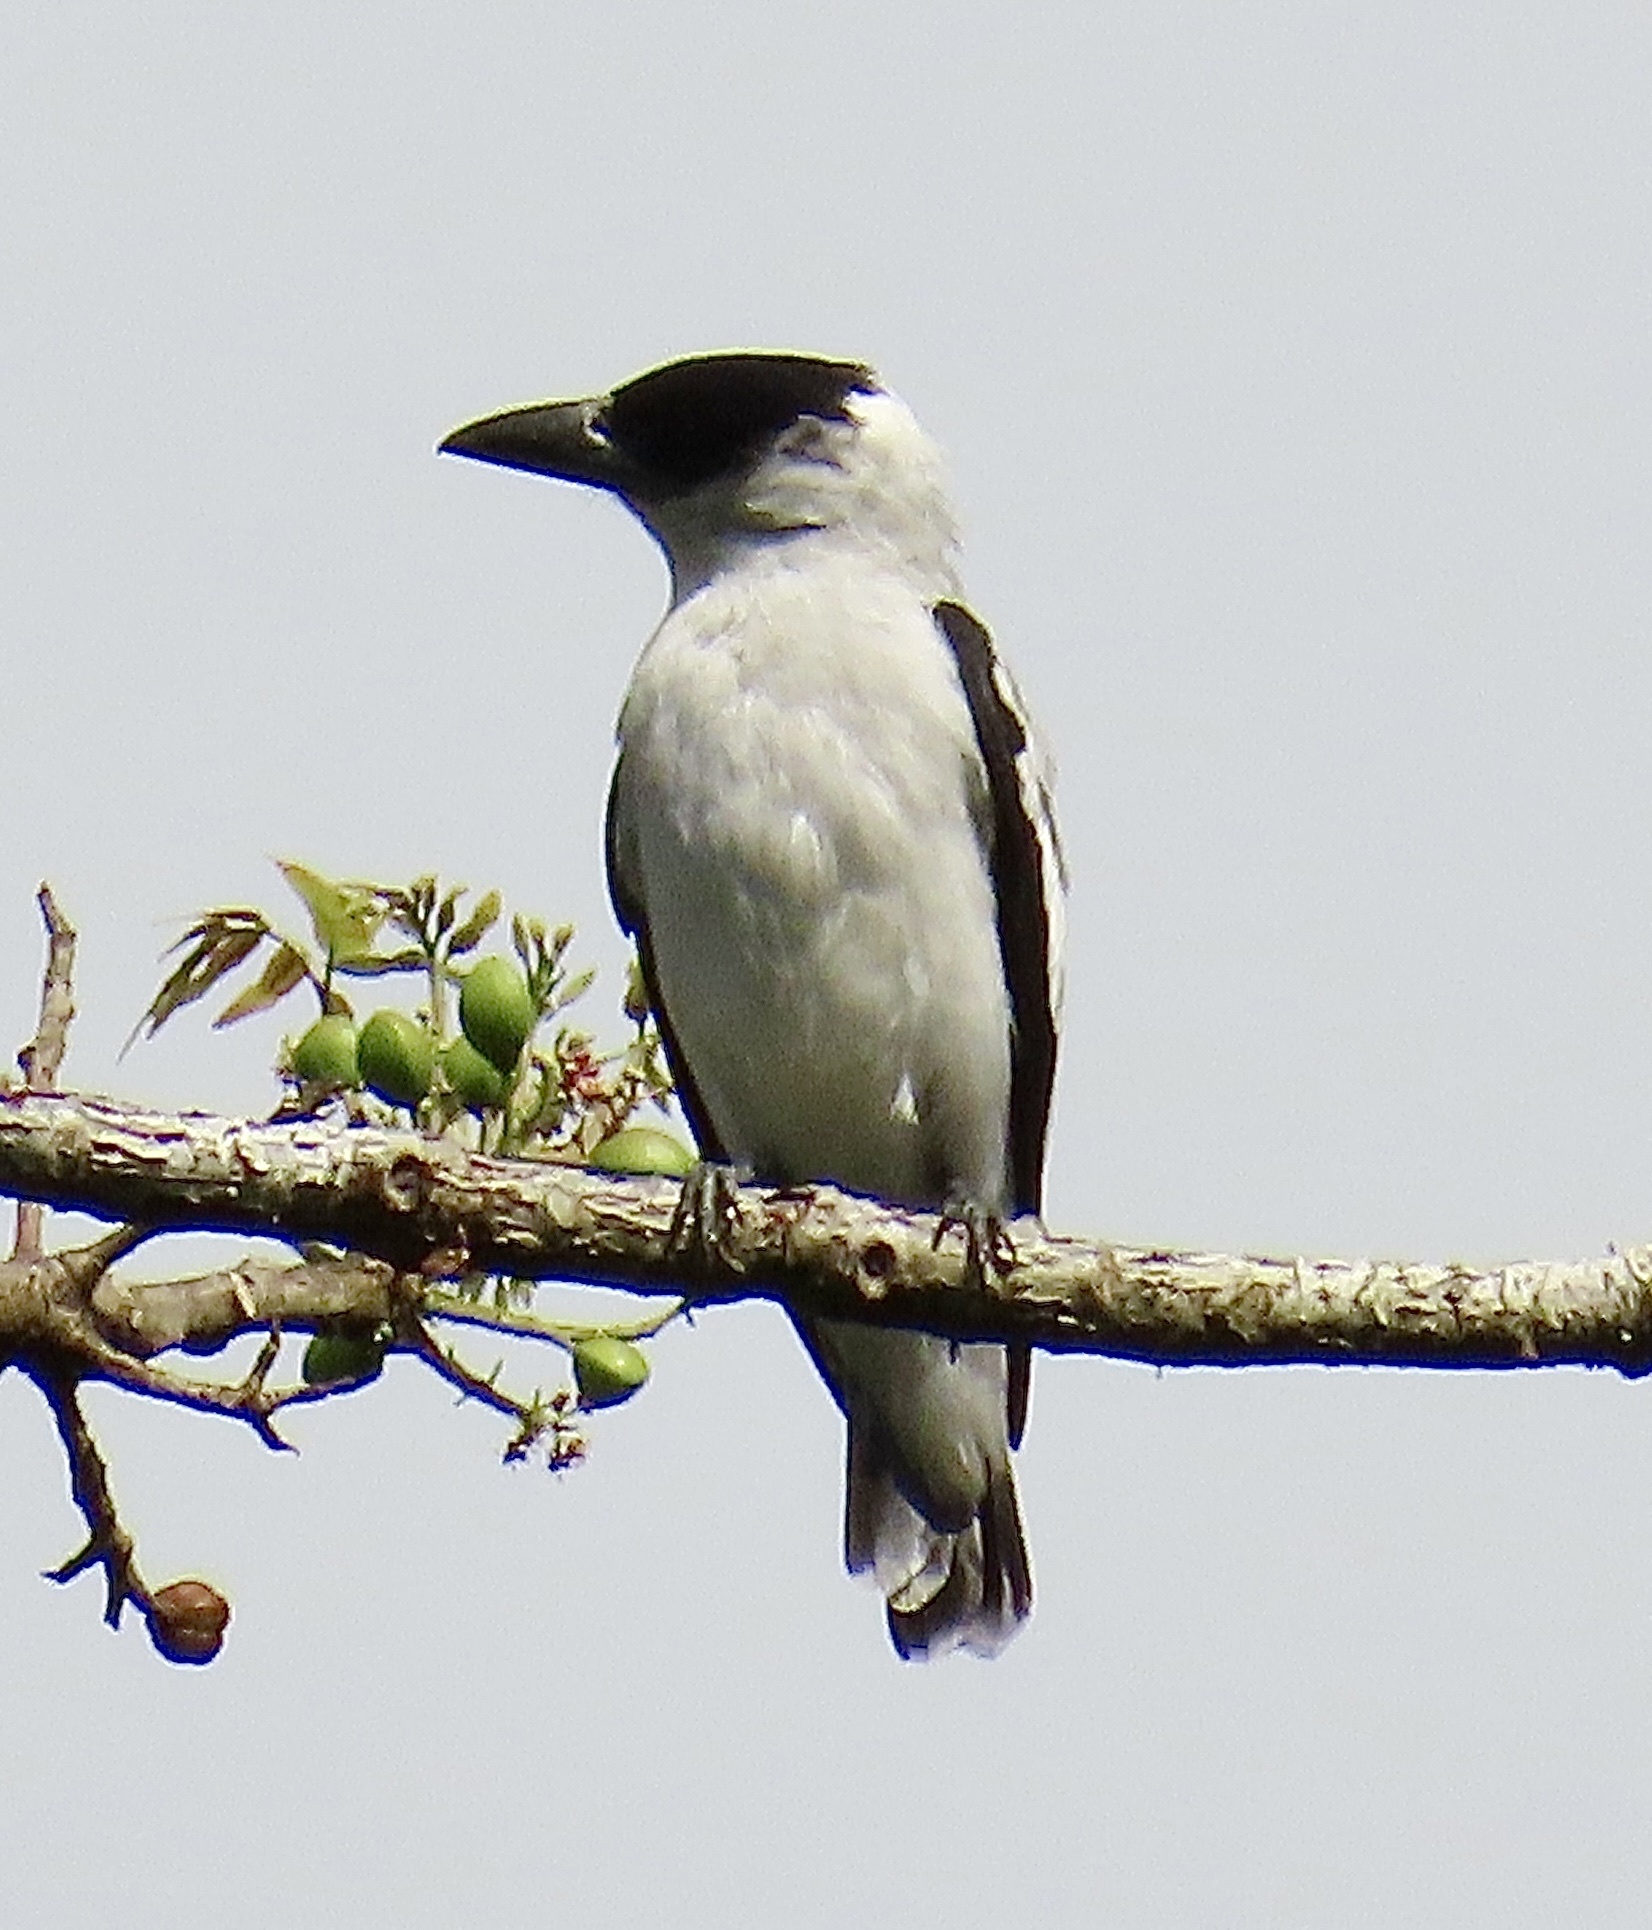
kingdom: Animalia
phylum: Chordata
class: Aves
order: Passeriformes
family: Cotingidae
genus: Tityra
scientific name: Tityra inquisitor
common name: Black-crowned tityra
